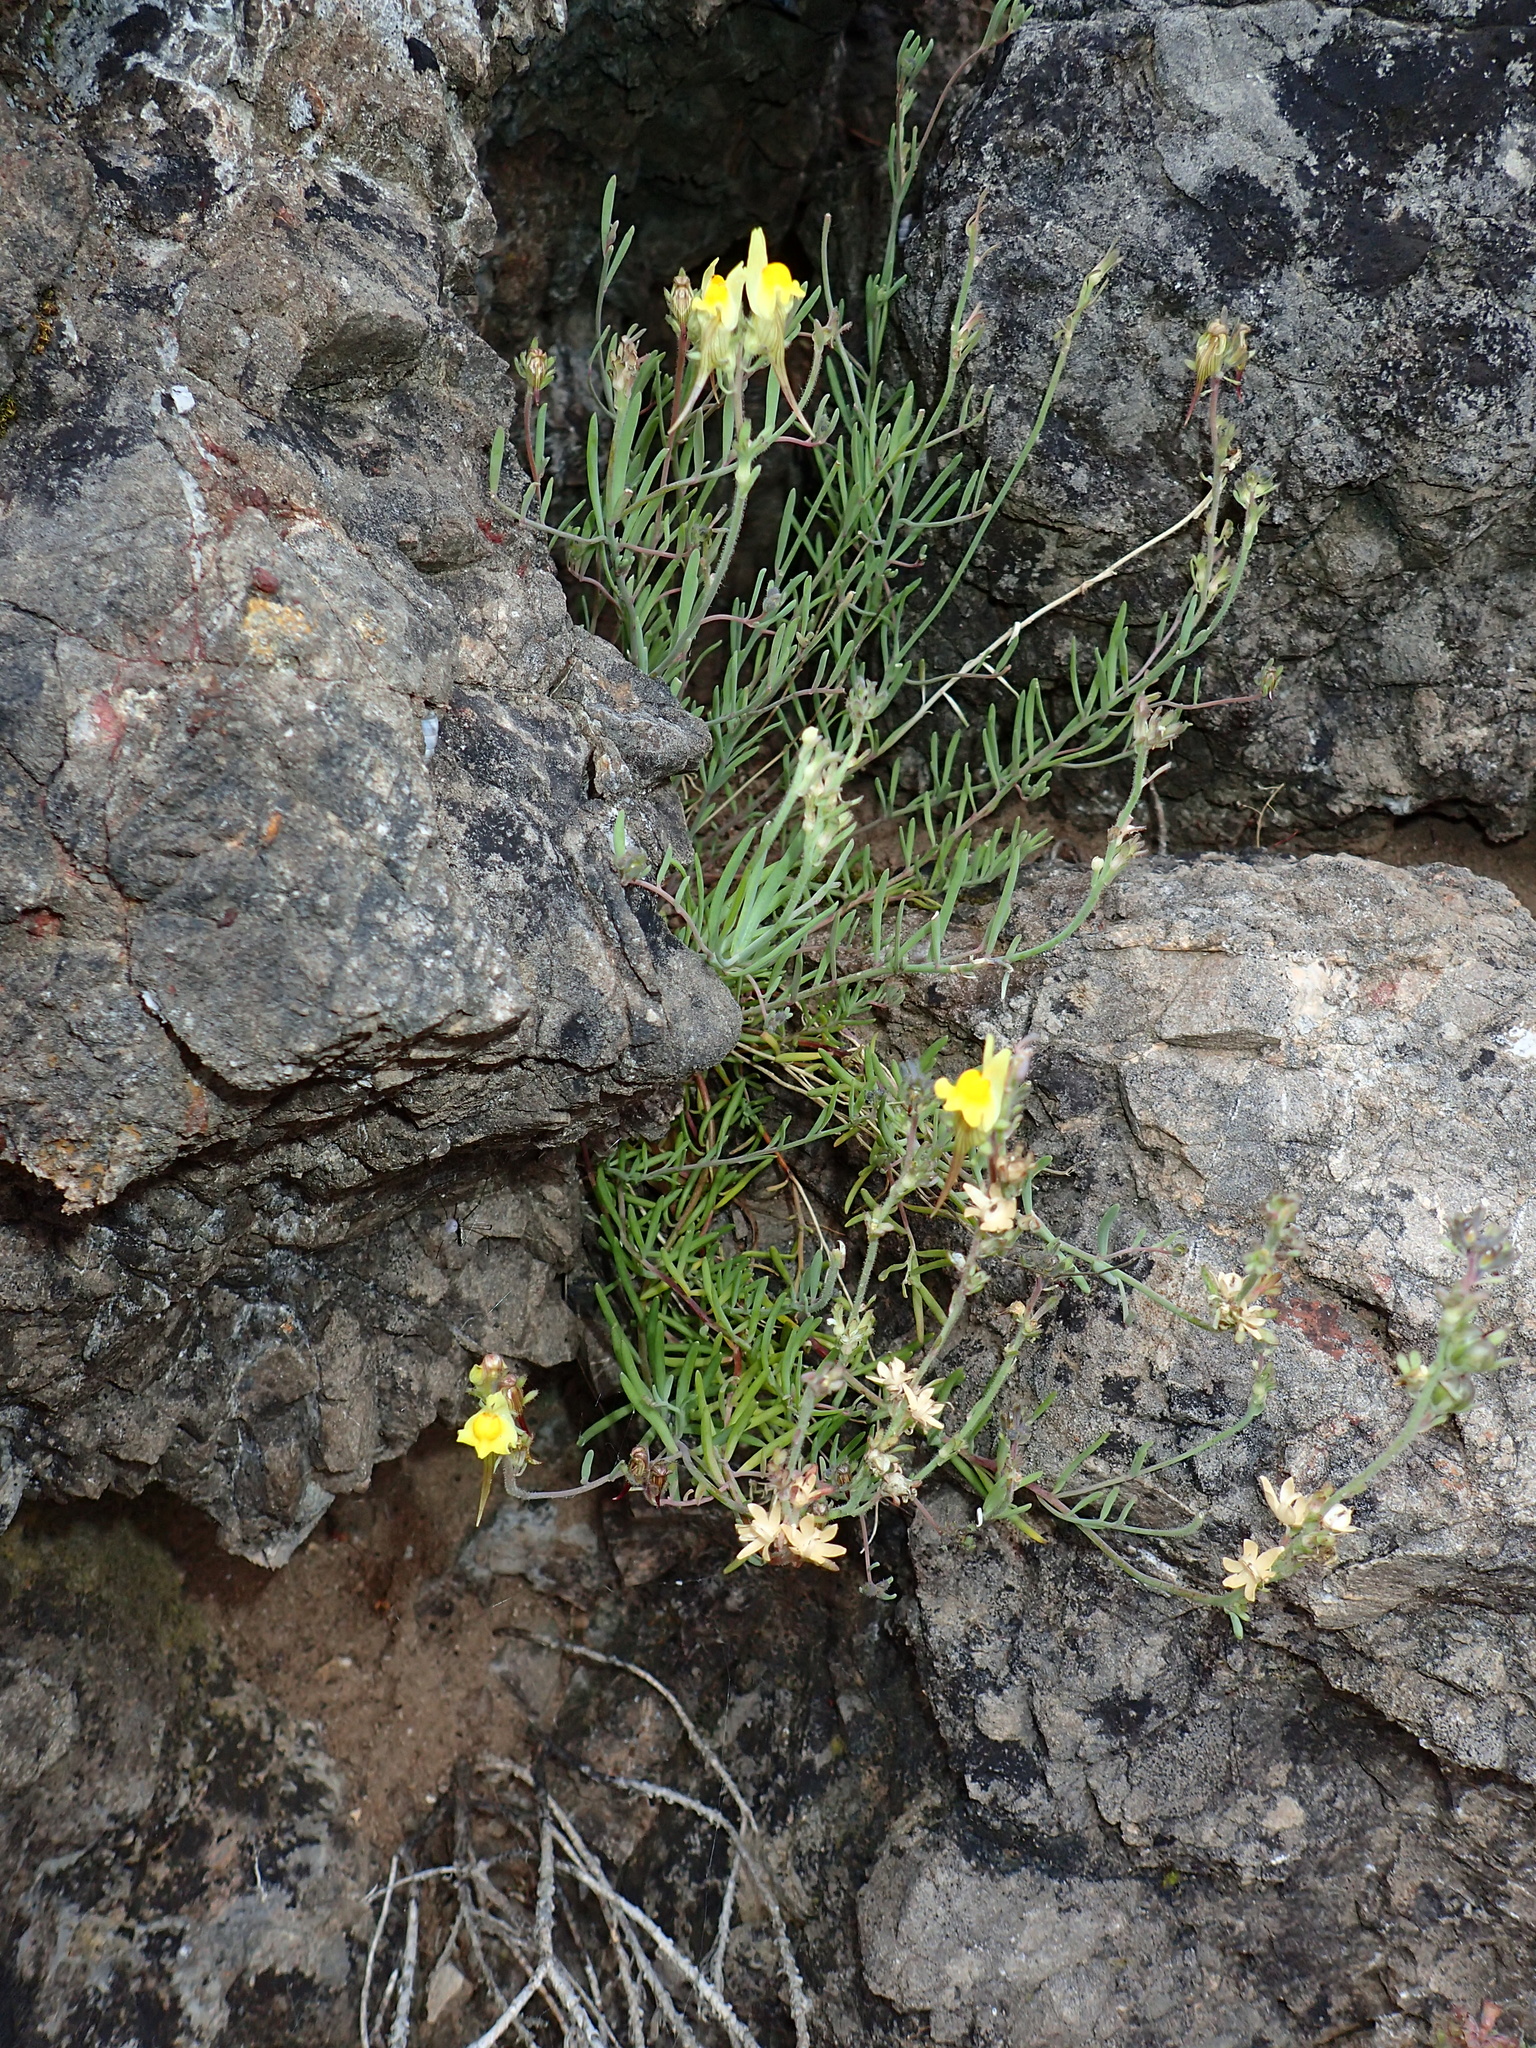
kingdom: Plantae
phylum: Tracheophyta
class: Magnoliopsida
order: Lamiales
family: Plantaginaceae
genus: Linaria
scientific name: Linaria supina
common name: Prostrate toadflax
